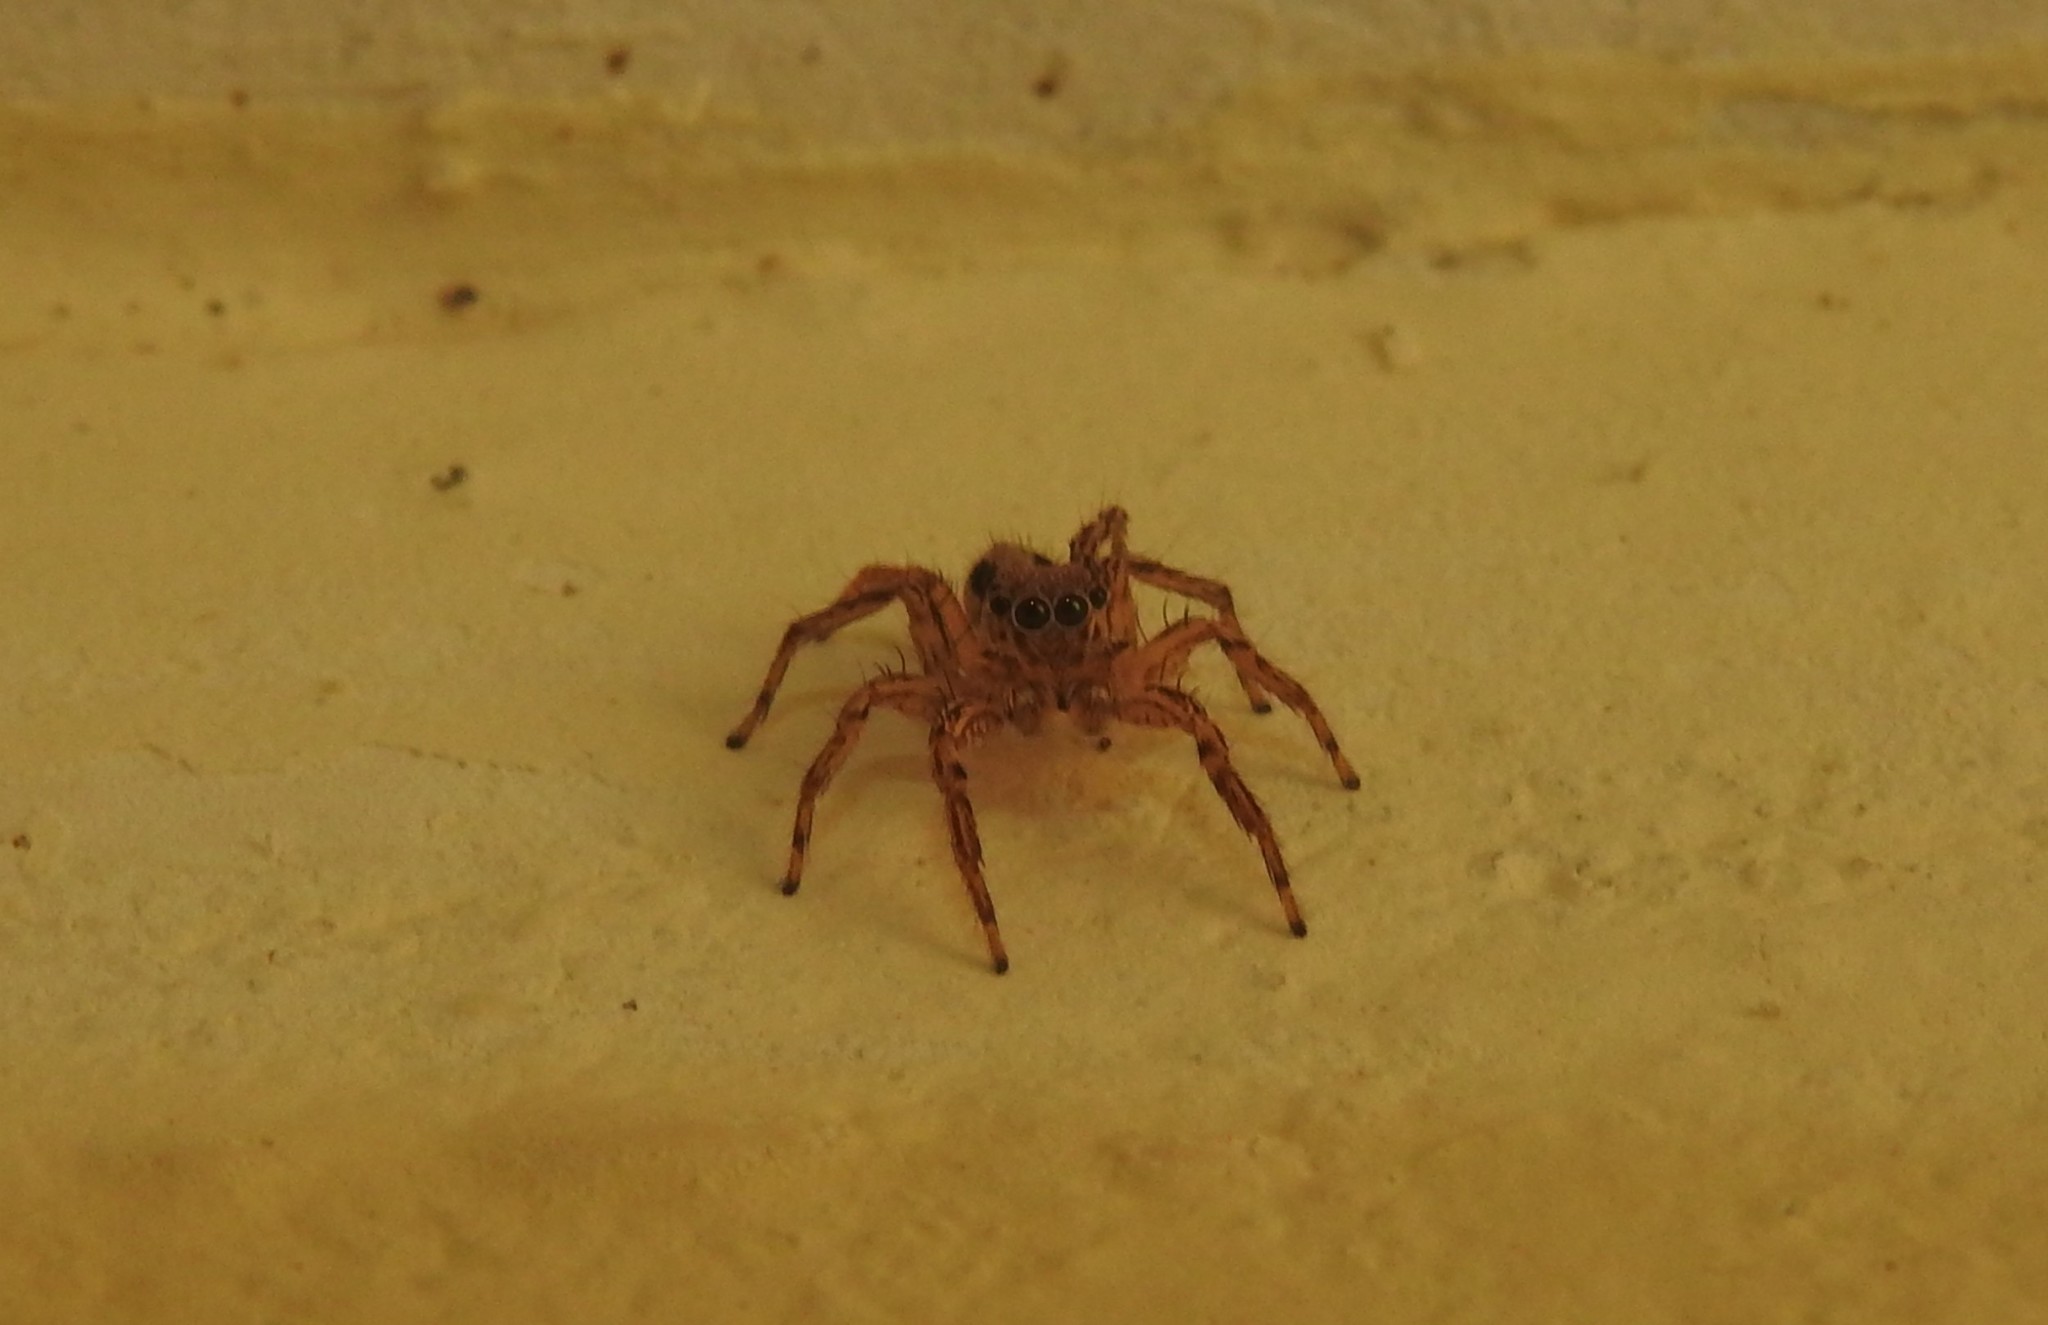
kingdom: Animalia
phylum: Arthropoda
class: Arachnida
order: Araneae
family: Salticidae
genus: Plexippus
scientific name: Plexippus petersi
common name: Jumping spider
